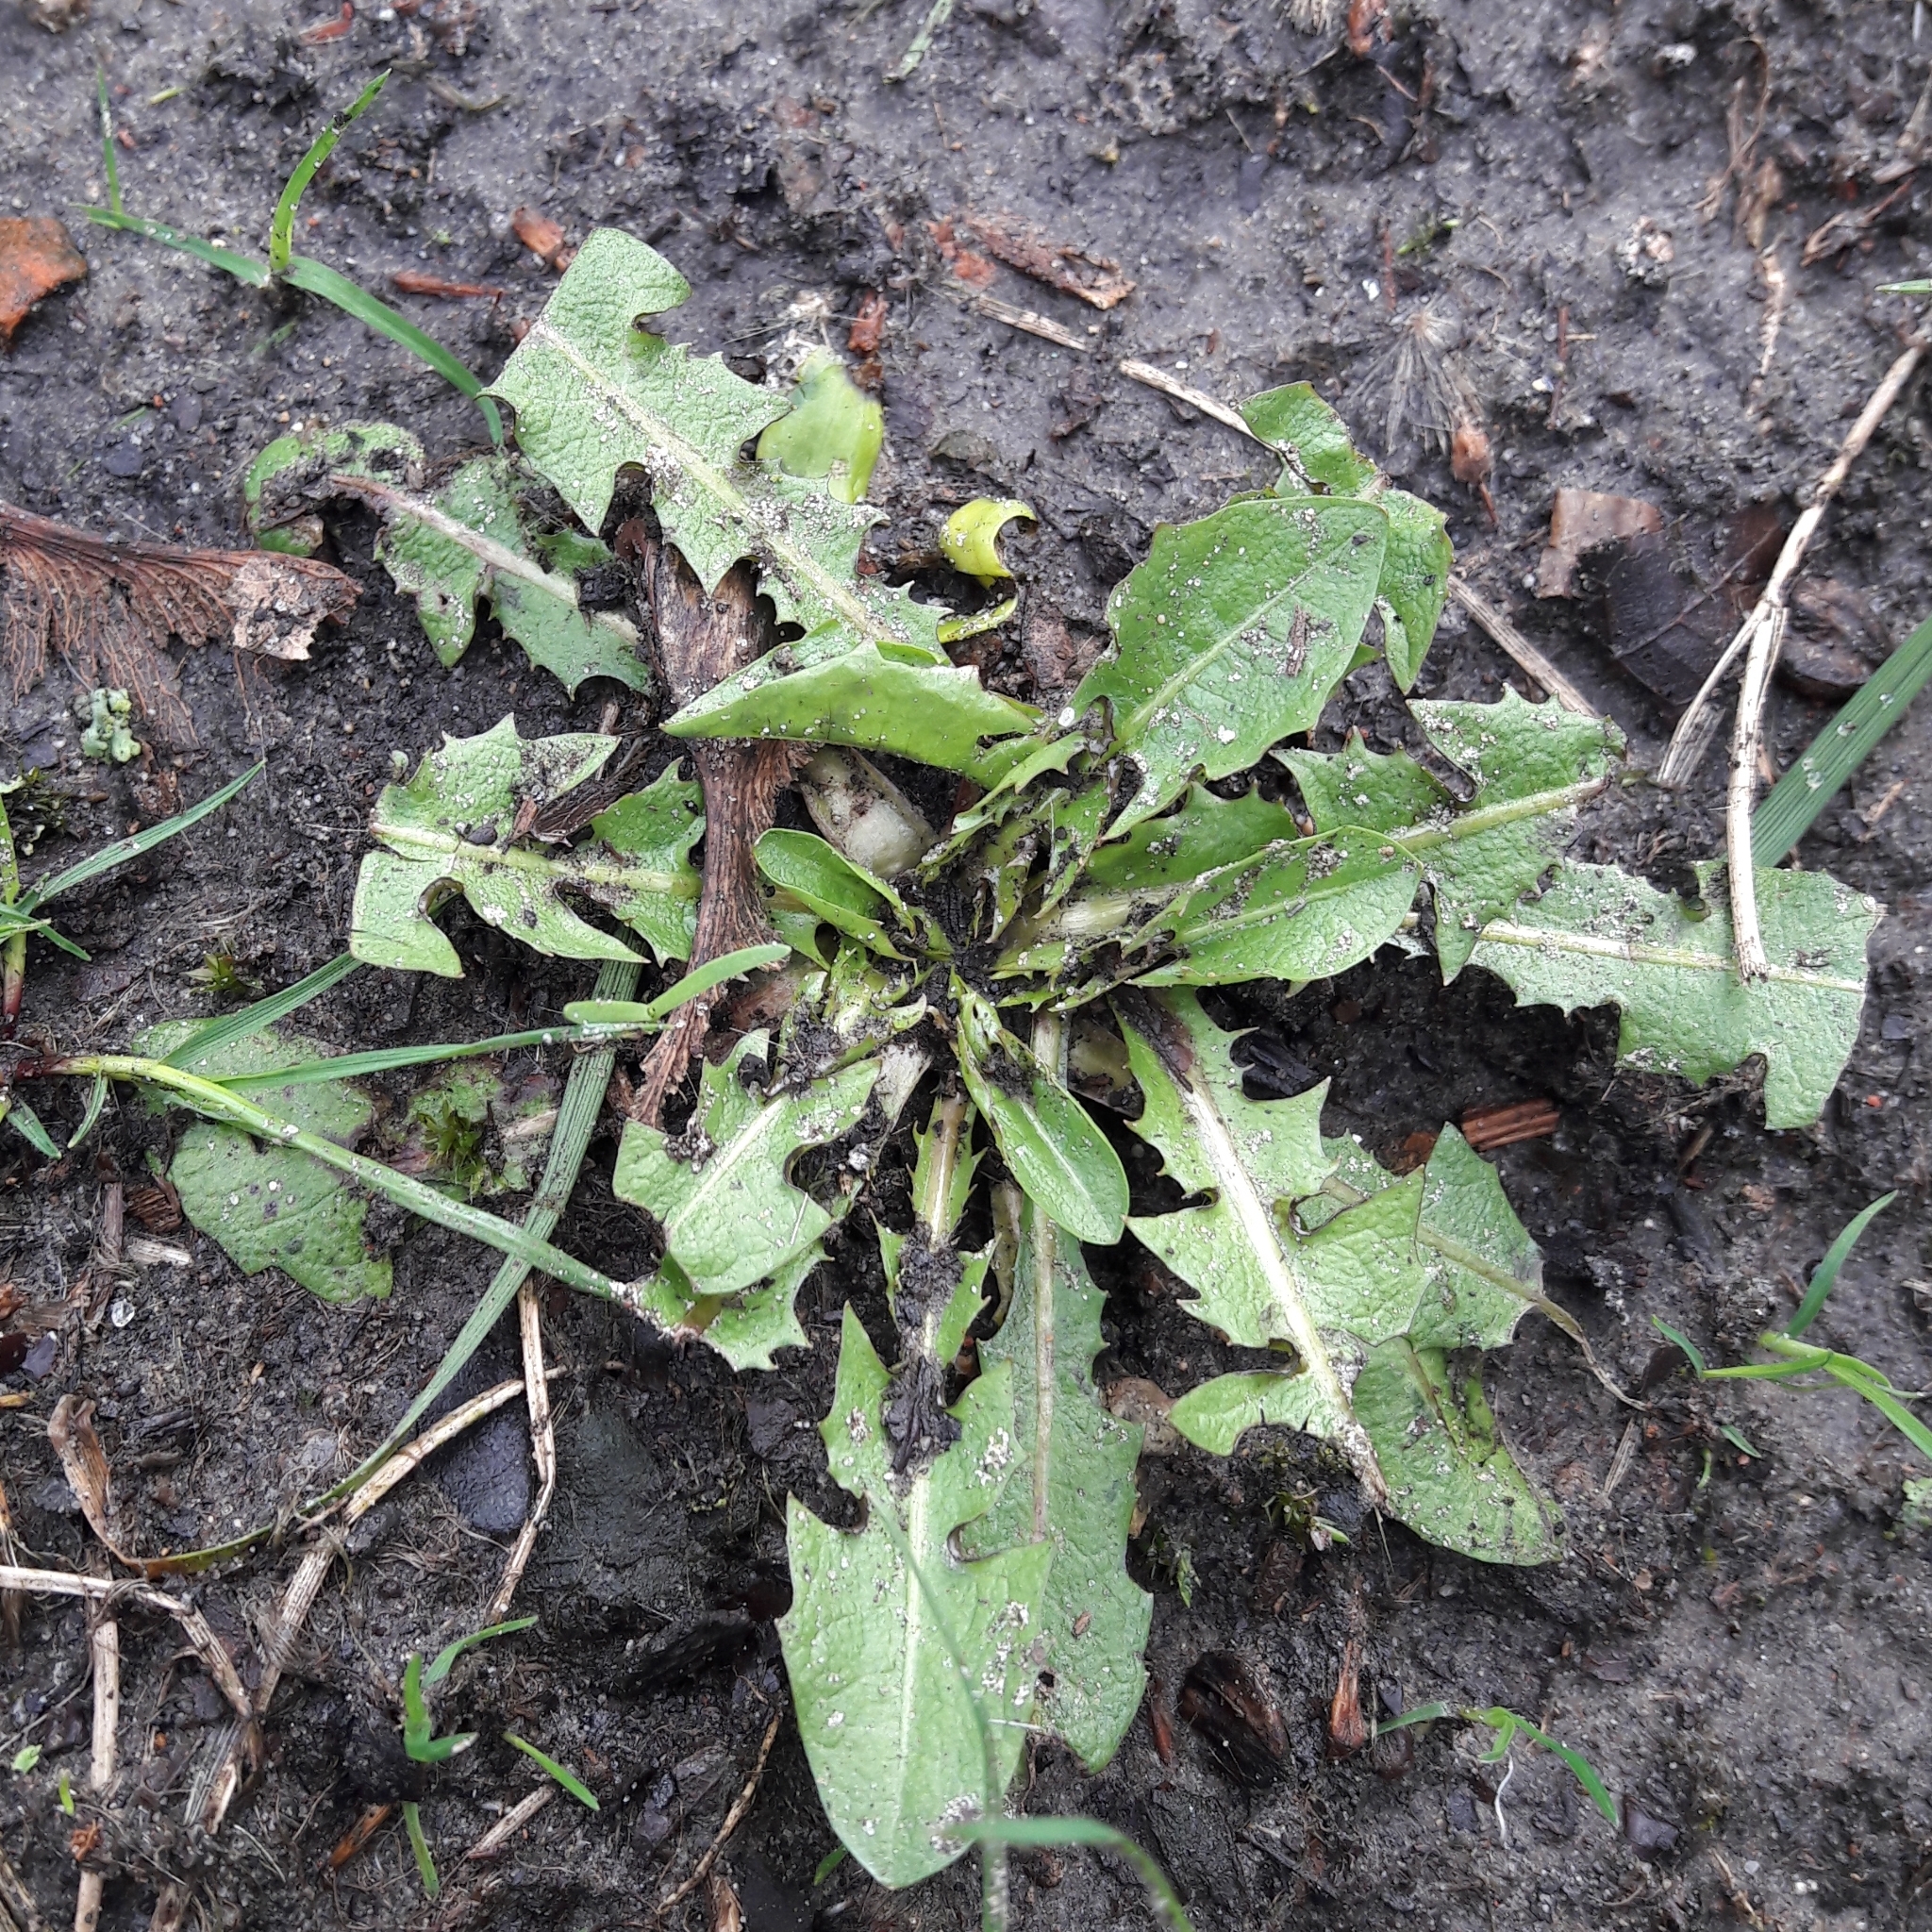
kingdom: Plantae
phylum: Tracheophyta
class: Magnoliopsida
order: Asterales
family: Asteraceae
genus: Taraxacum
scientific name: Taraxacum officinale
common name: Common dandelion
